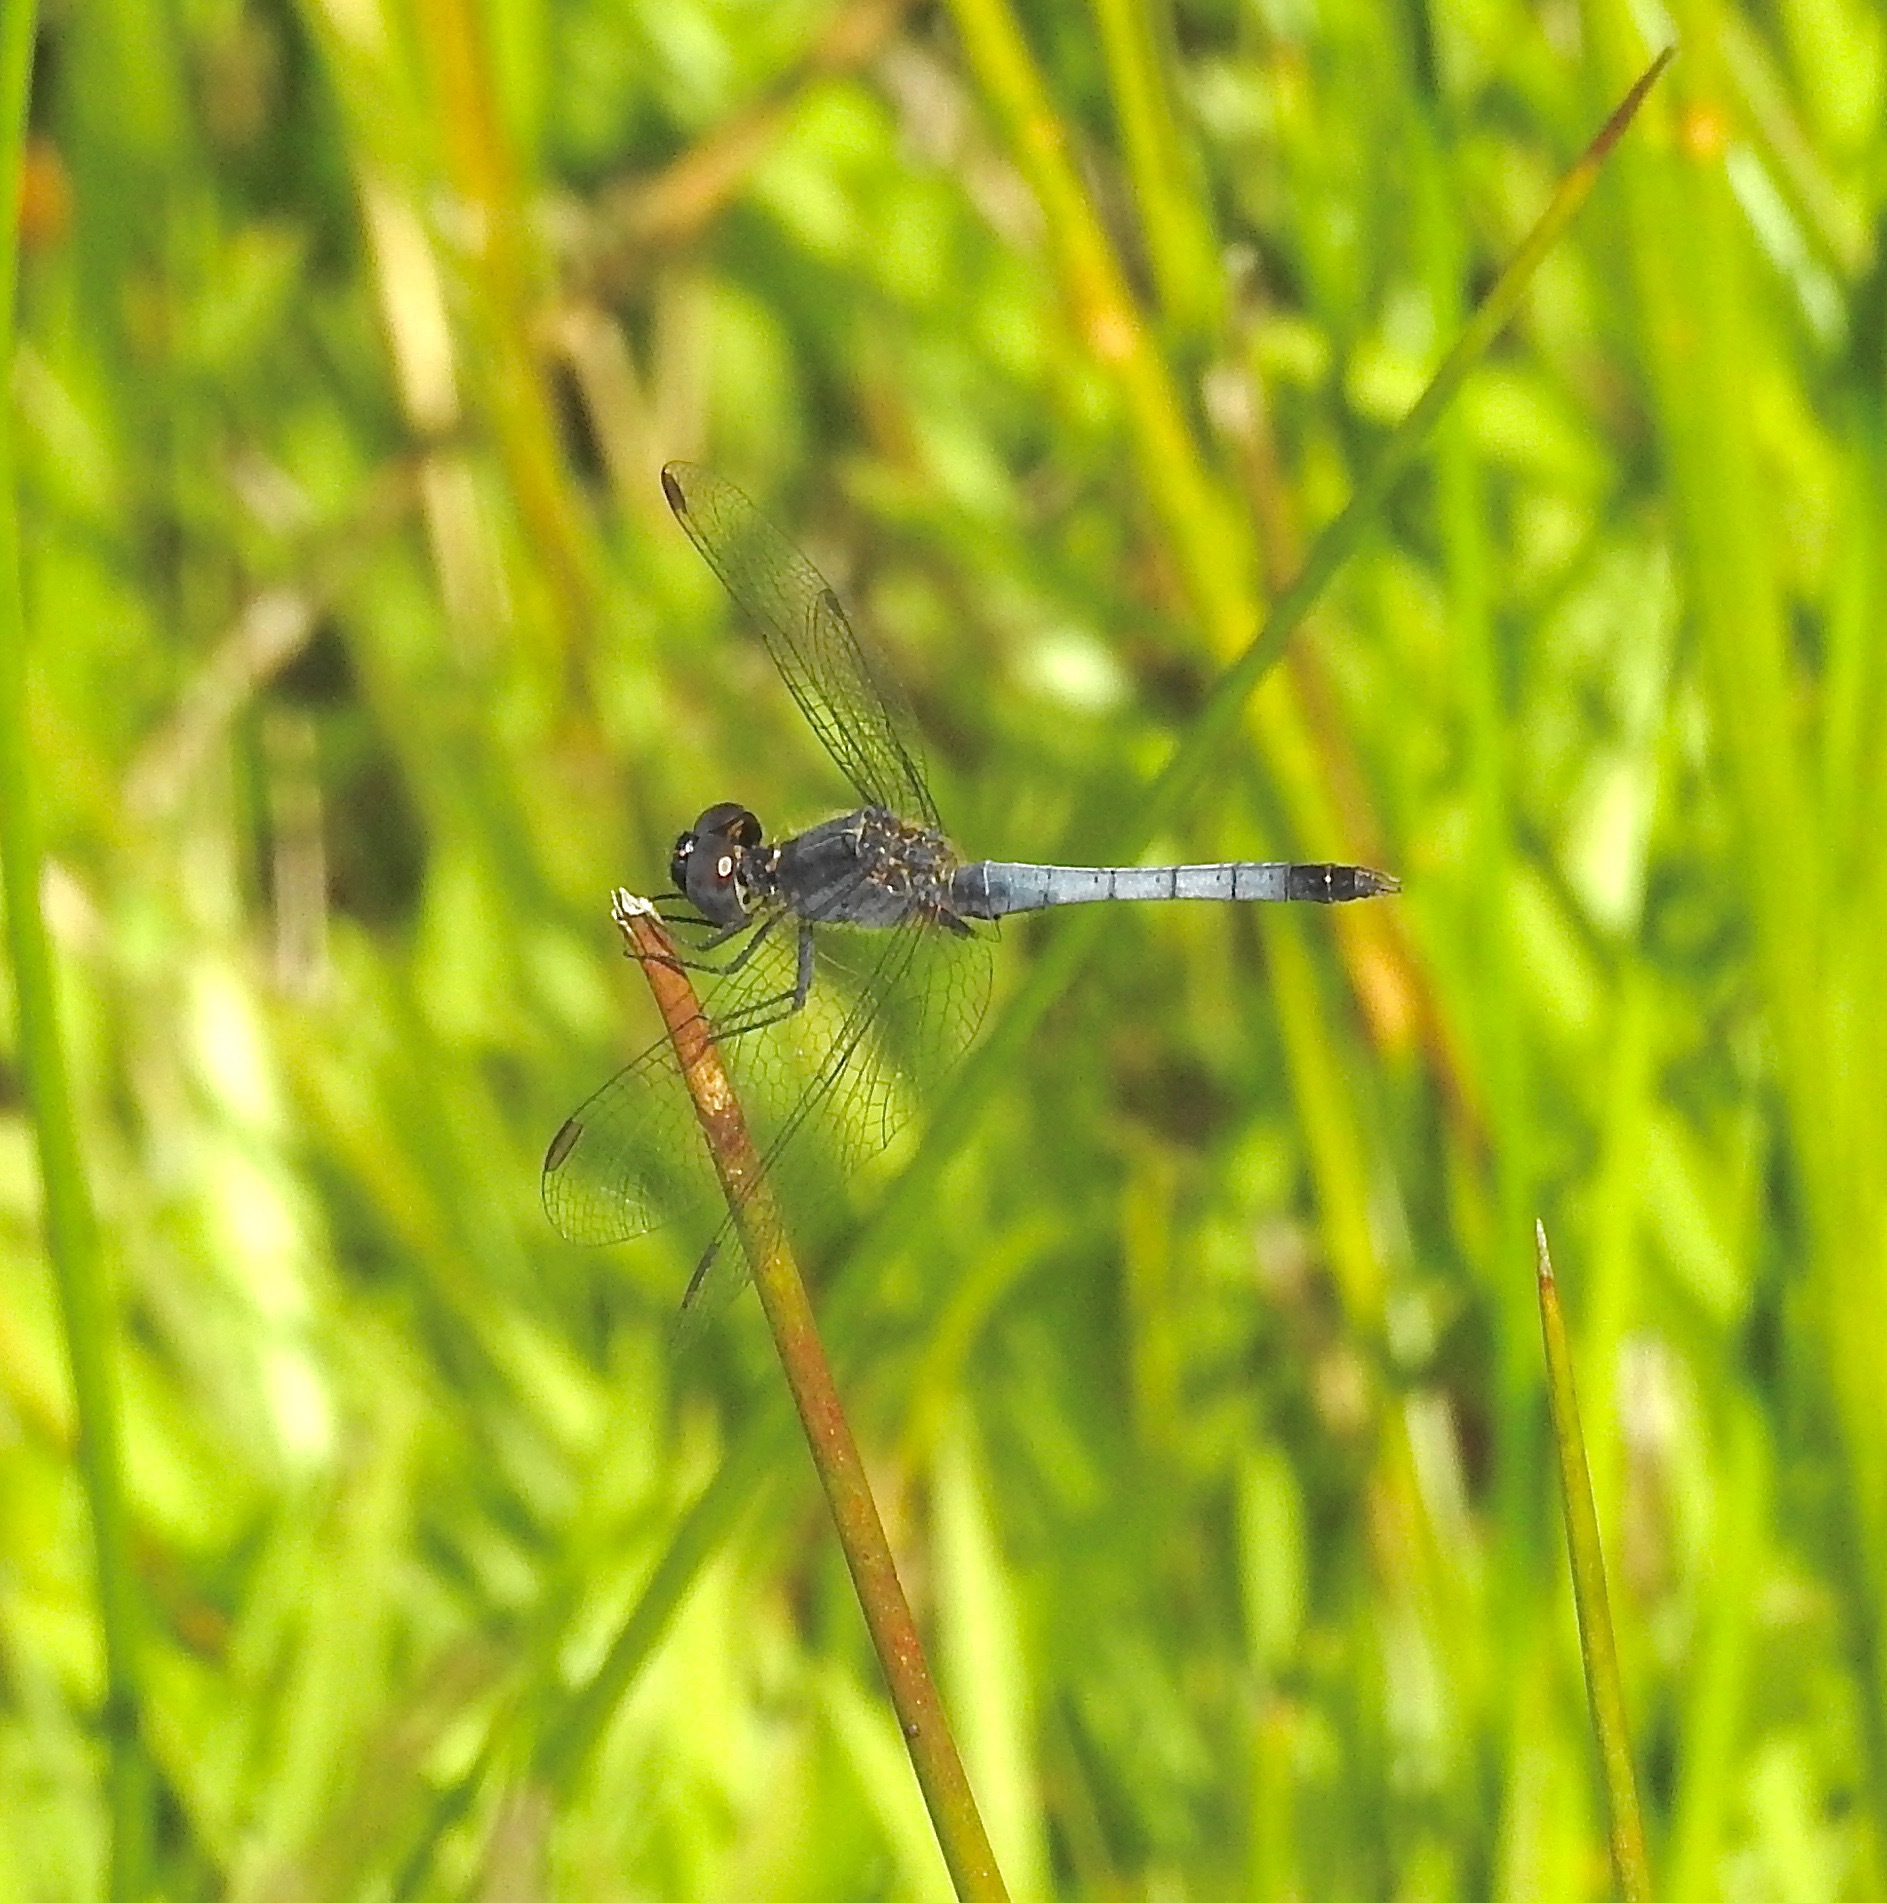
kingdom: Animalia
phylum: Arthropoda
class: Insecta
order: Odonata
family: Libellulidae
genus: Erythrodiplax
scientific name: Erythrodiplax minuscula
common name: Little blue dragonlet
